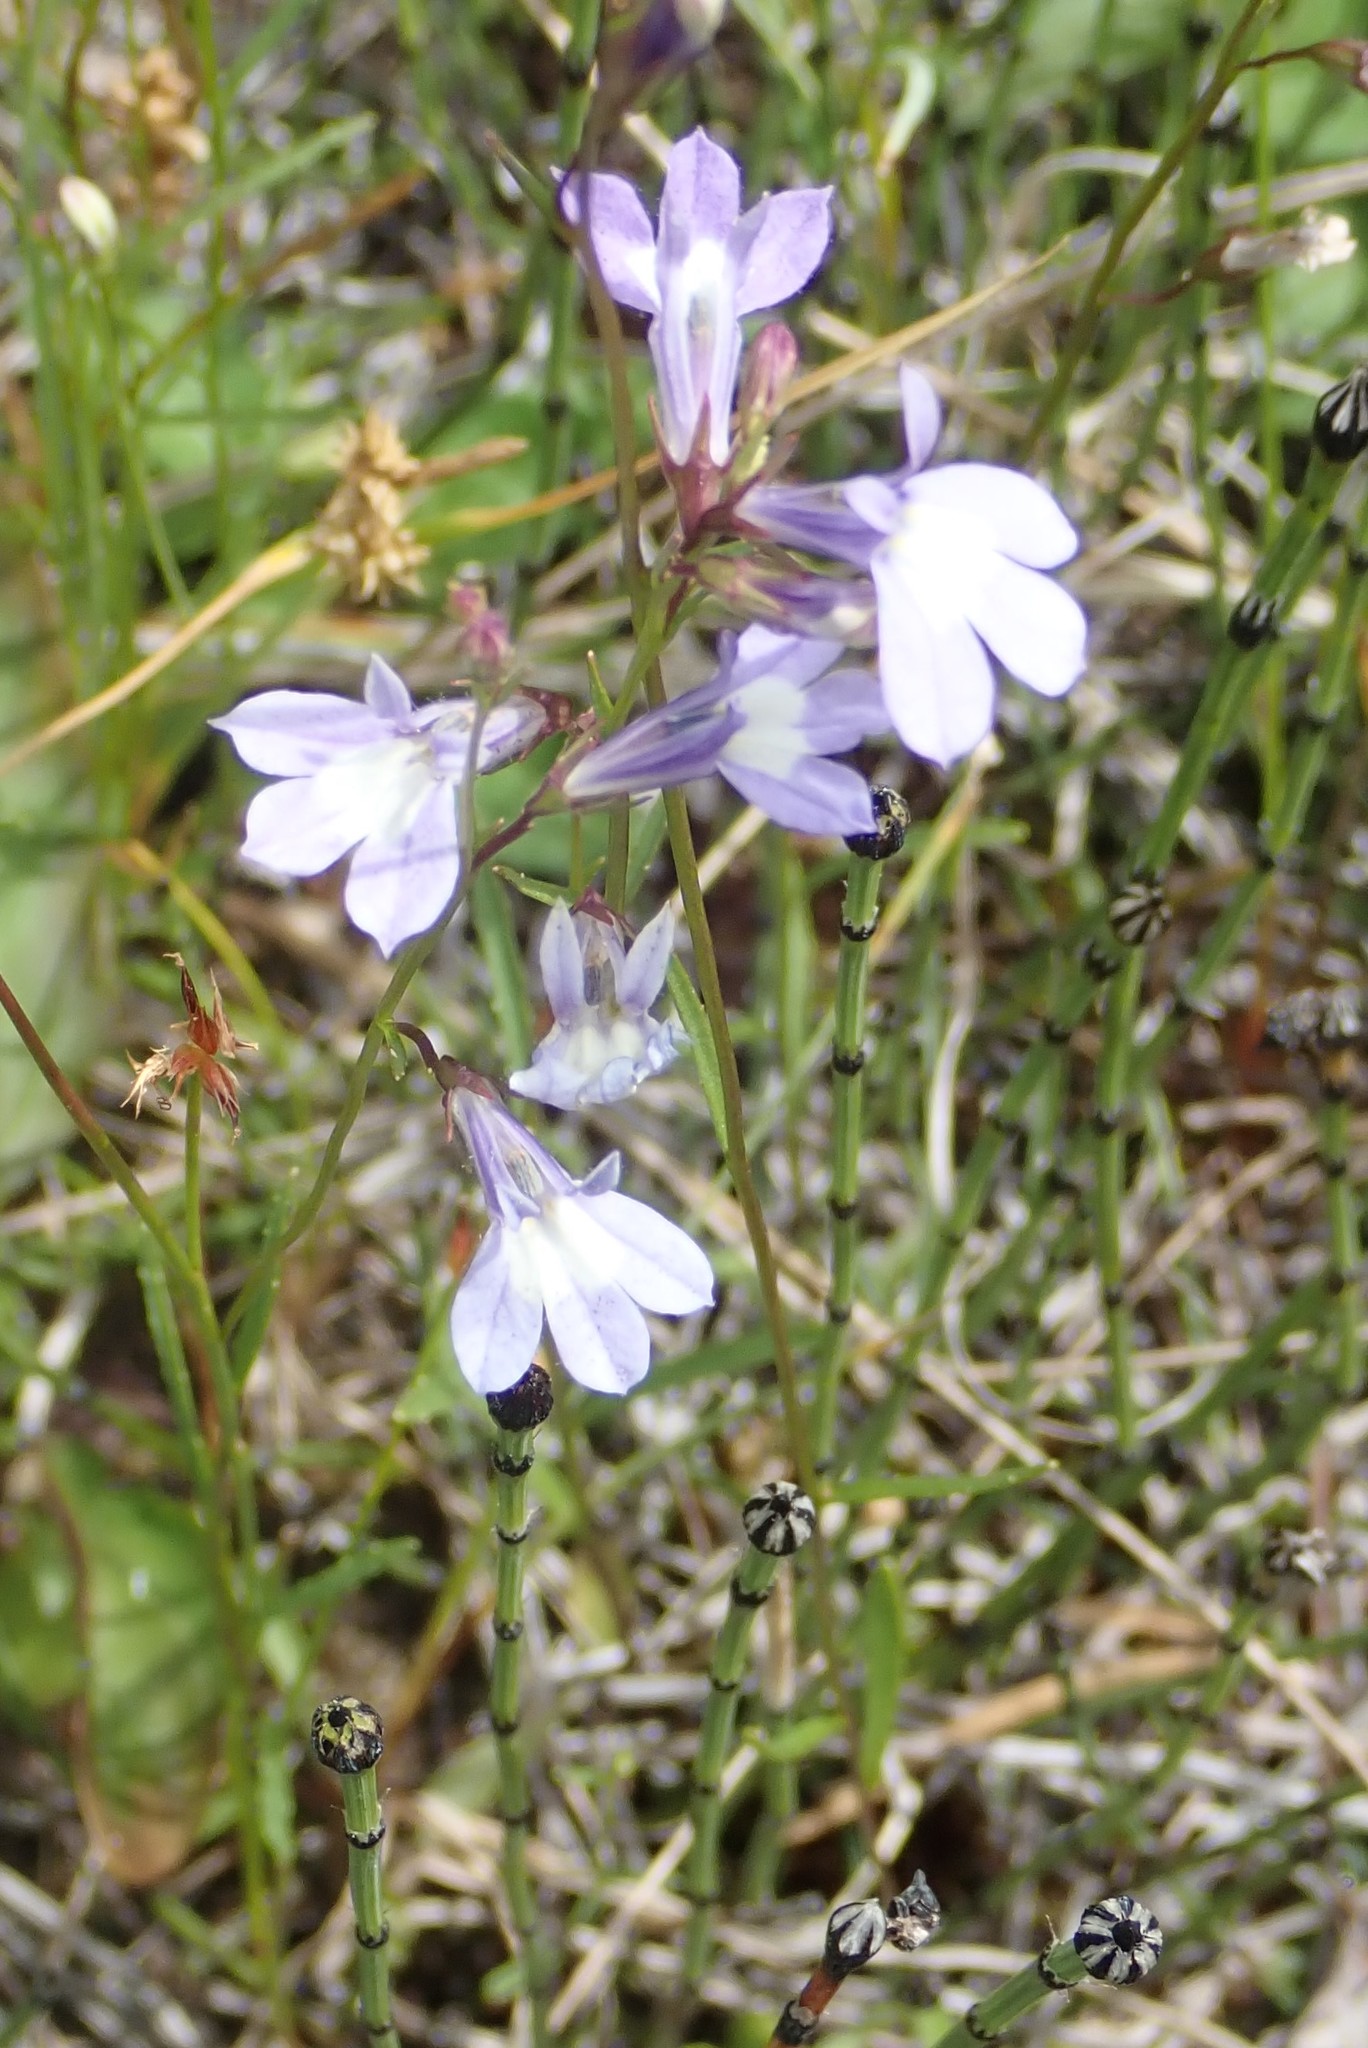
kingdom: Plantae
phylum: Tracheophyta
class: Magnoliopsida
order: Asterales
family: Campanulaceae
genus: Lobelia
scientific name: Lobelia kalmii
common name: Kalm's lobelia
